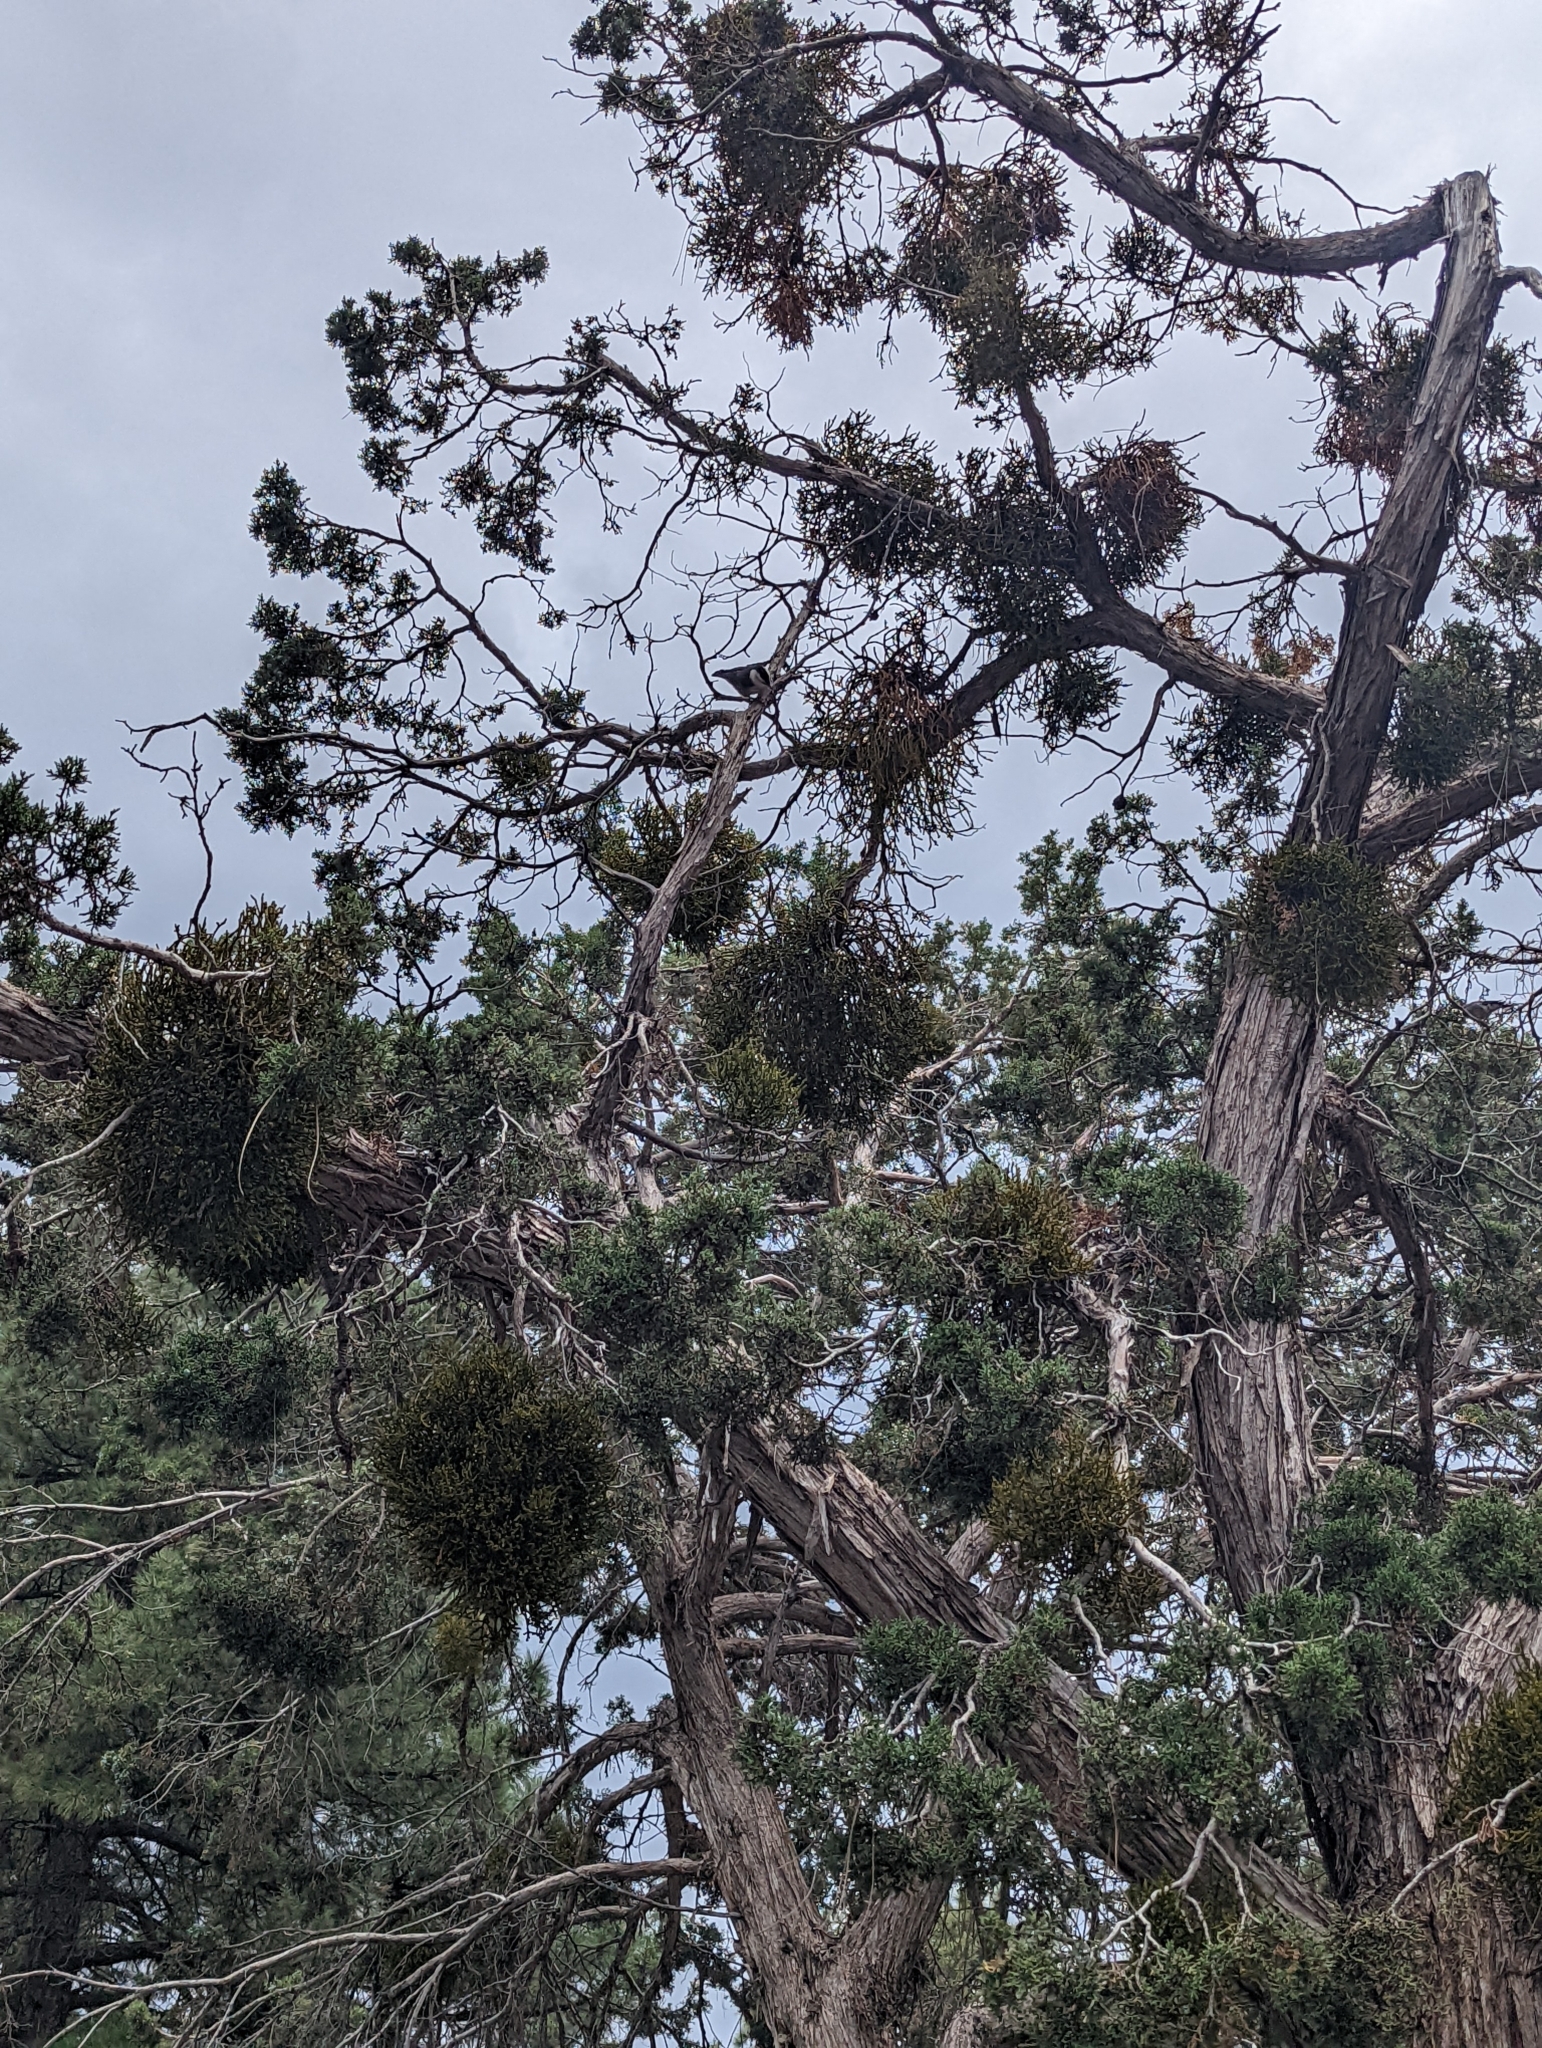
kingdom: Animalia
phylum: Chordata
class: Aves
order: Passeriformes
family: Sittidae
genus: Sitta
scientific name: Sitta carolinensis
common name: White-breasted nuthatch
